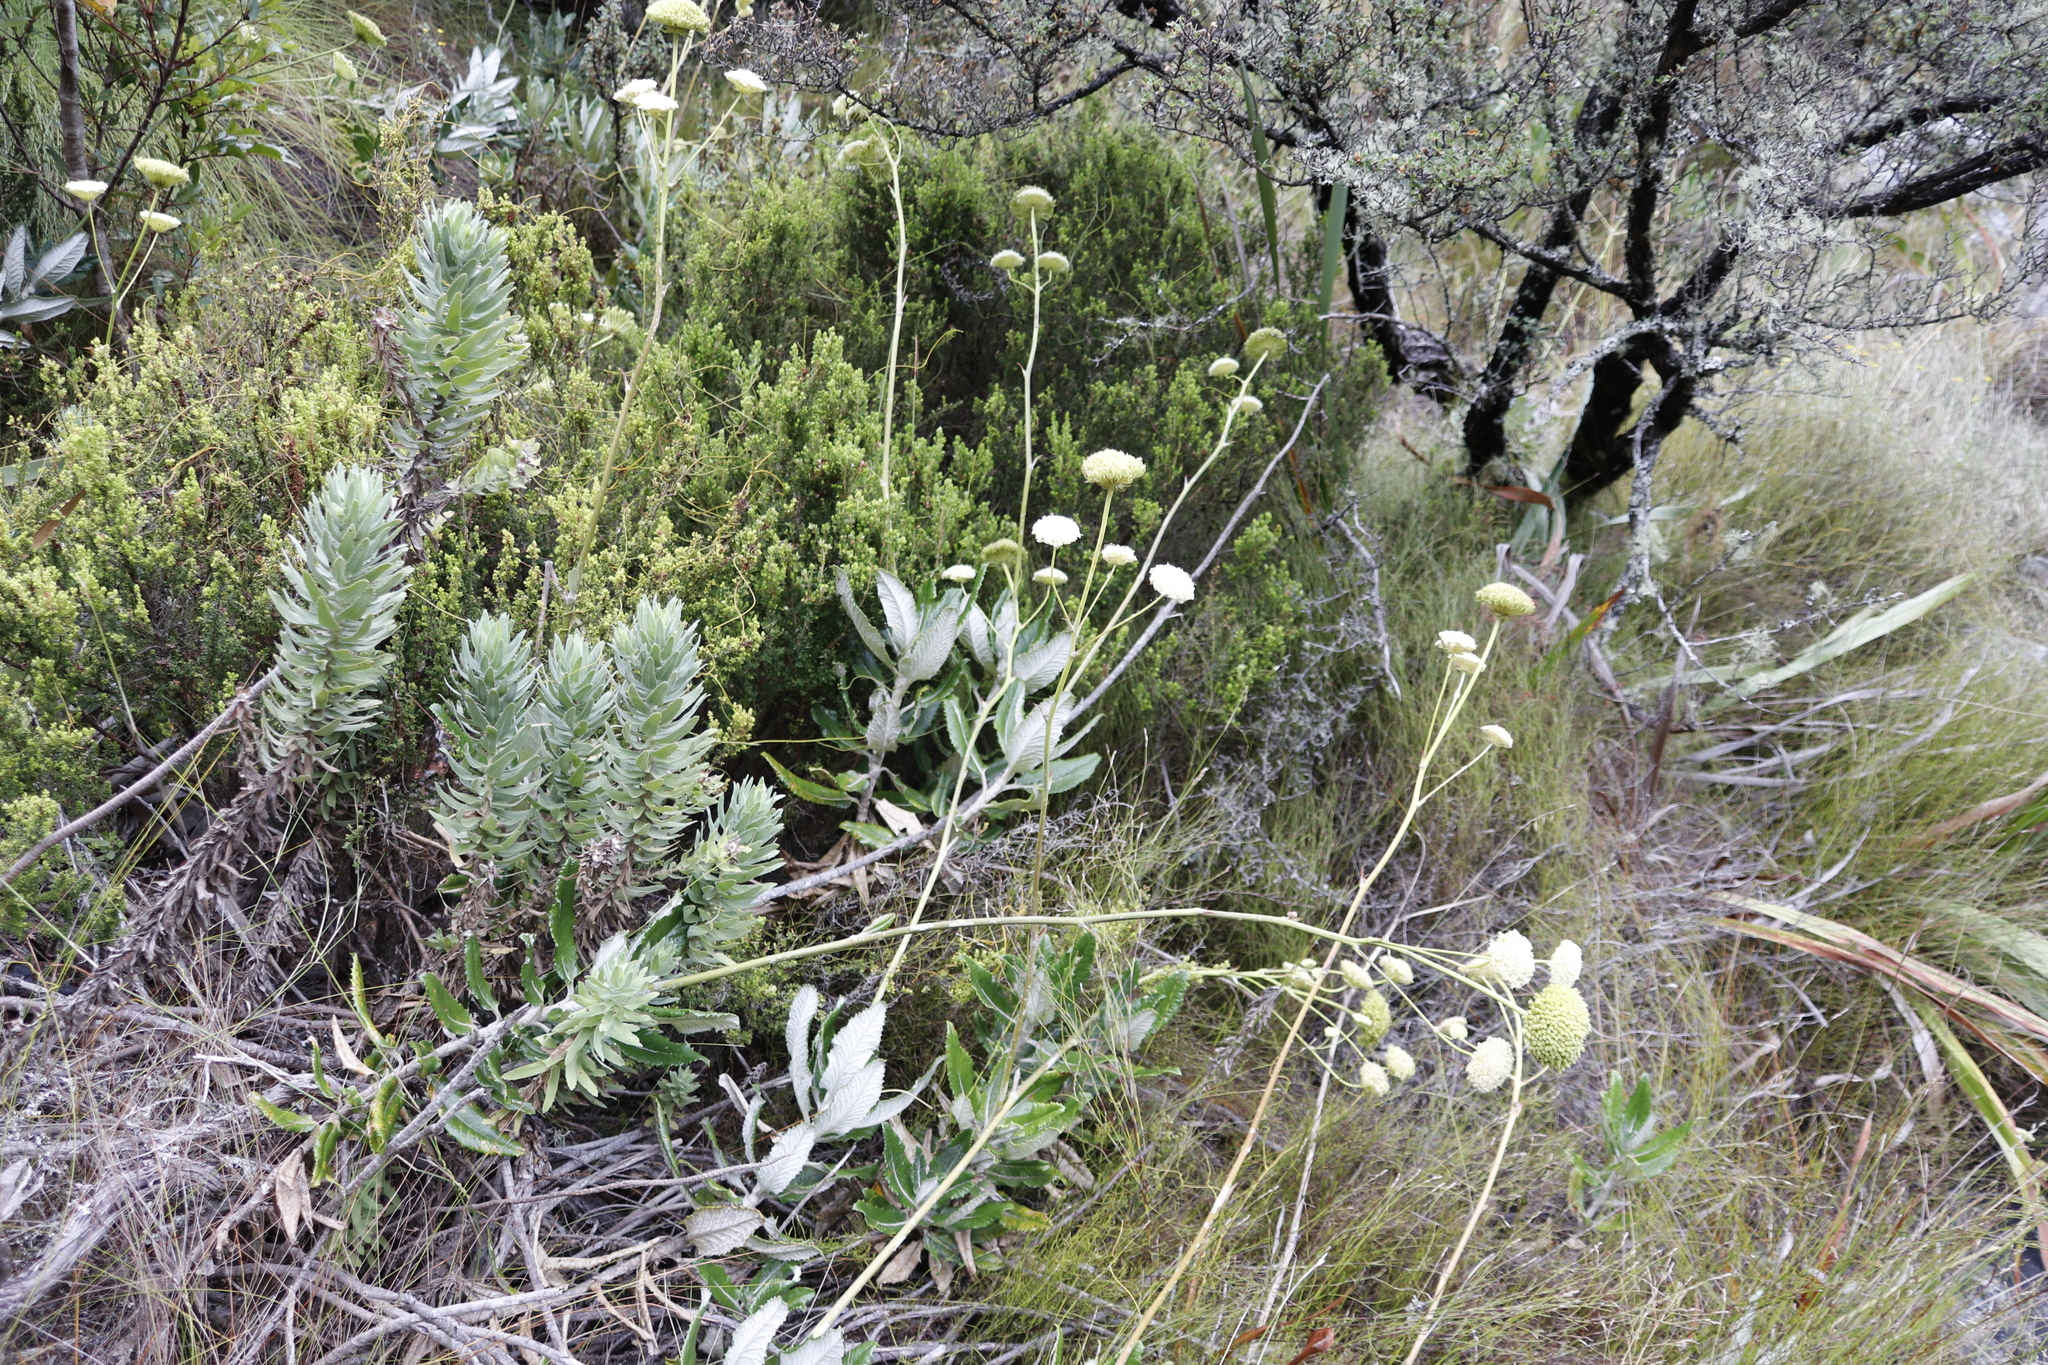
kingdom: Plantae
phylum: Tracheophyta
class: Magnoliopsida
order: Apiales
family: Apiaceae
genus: Hermas
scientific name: Hermas villosa
